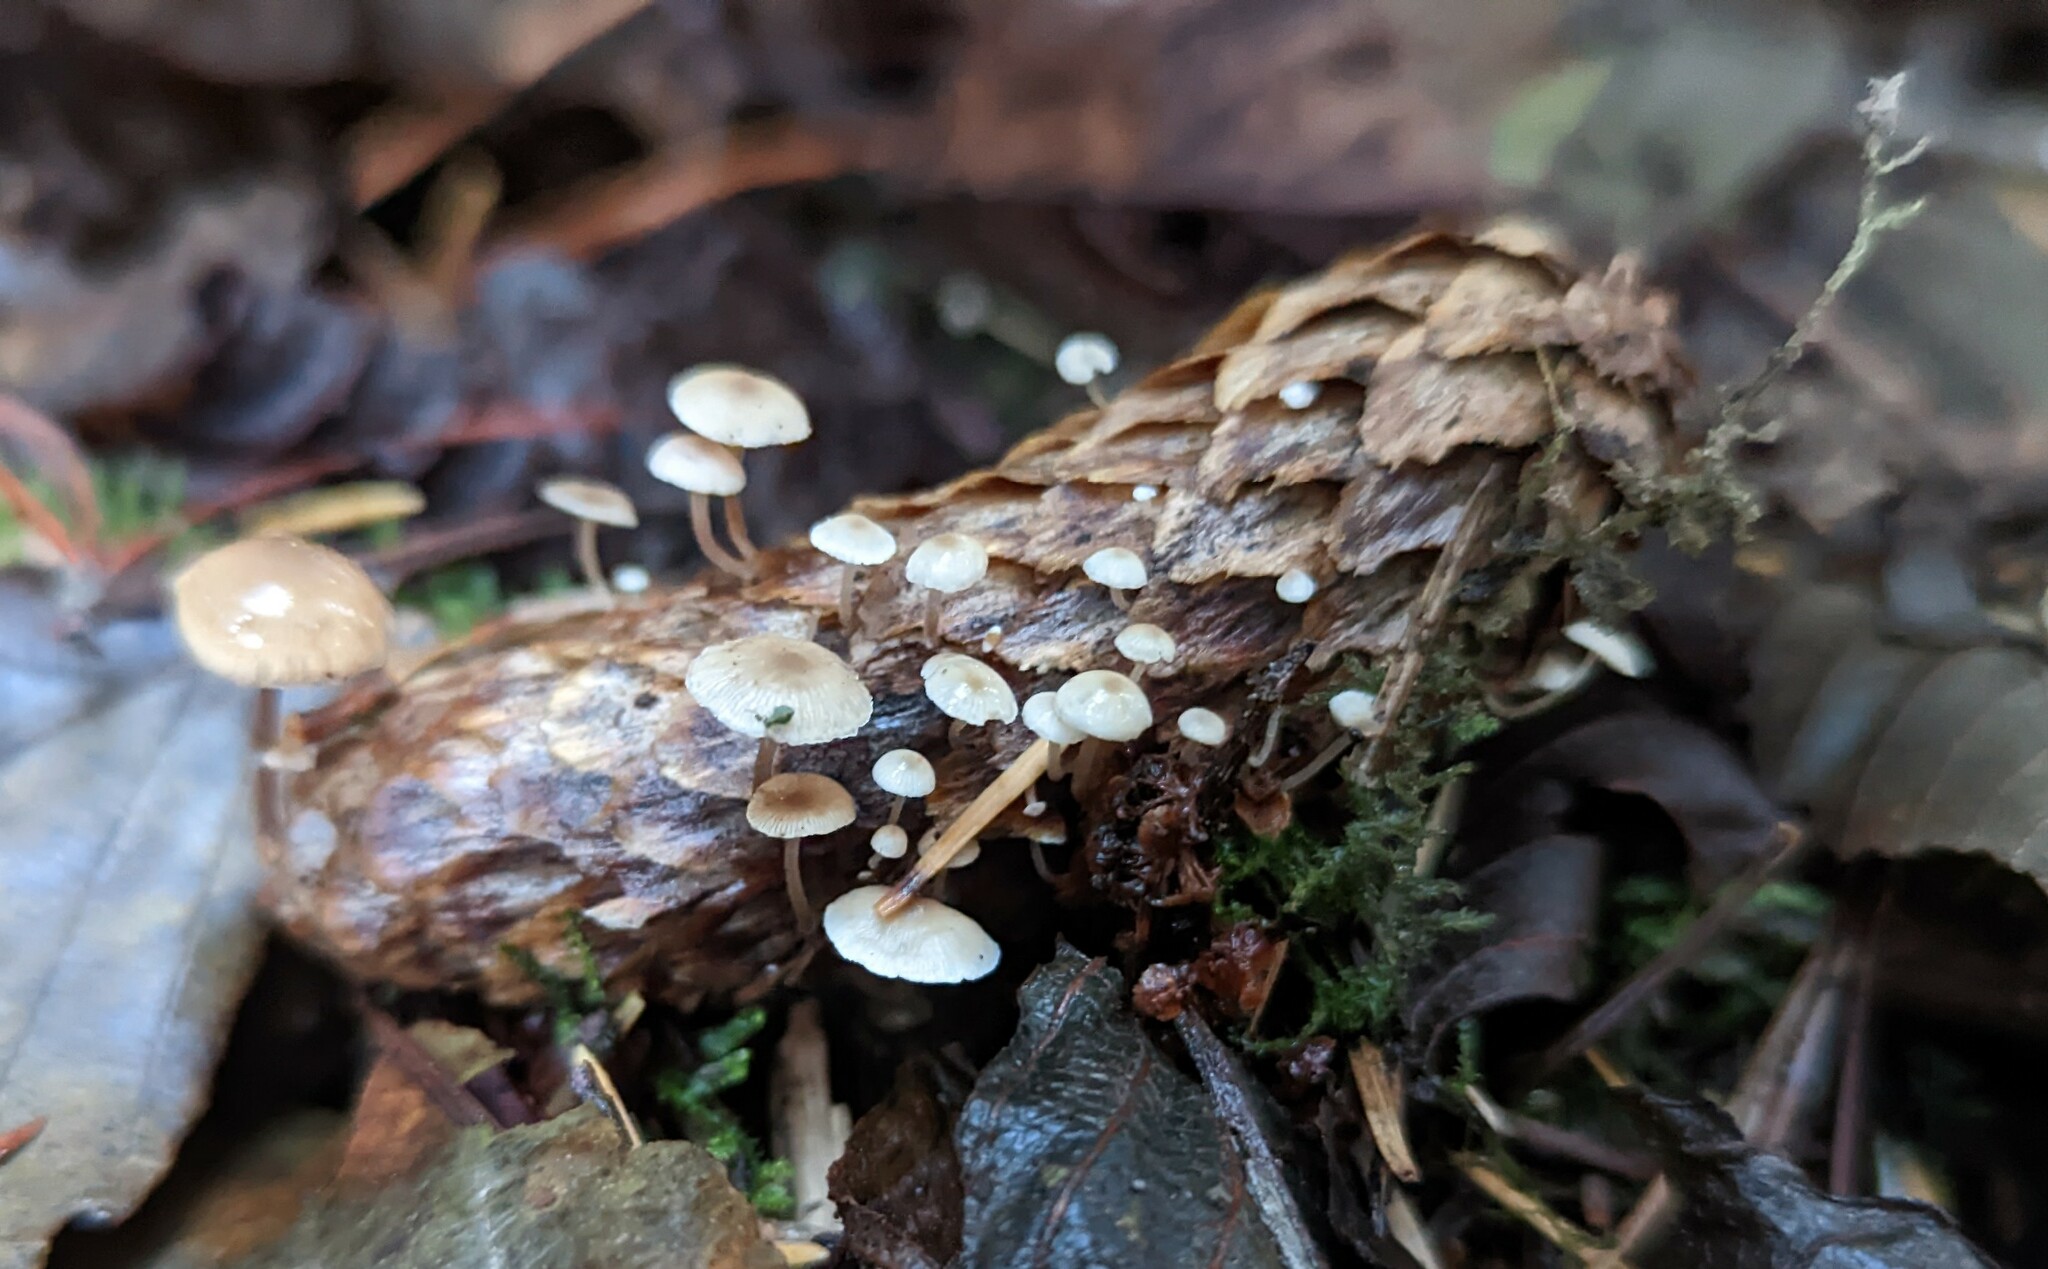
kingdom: Fungi
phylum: Basidiomycota
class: Agaricomycetes
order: Agaricales
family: Marasmiaceae
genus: Baeospora
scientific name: Baeospora myosura
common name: Conifercone cap
